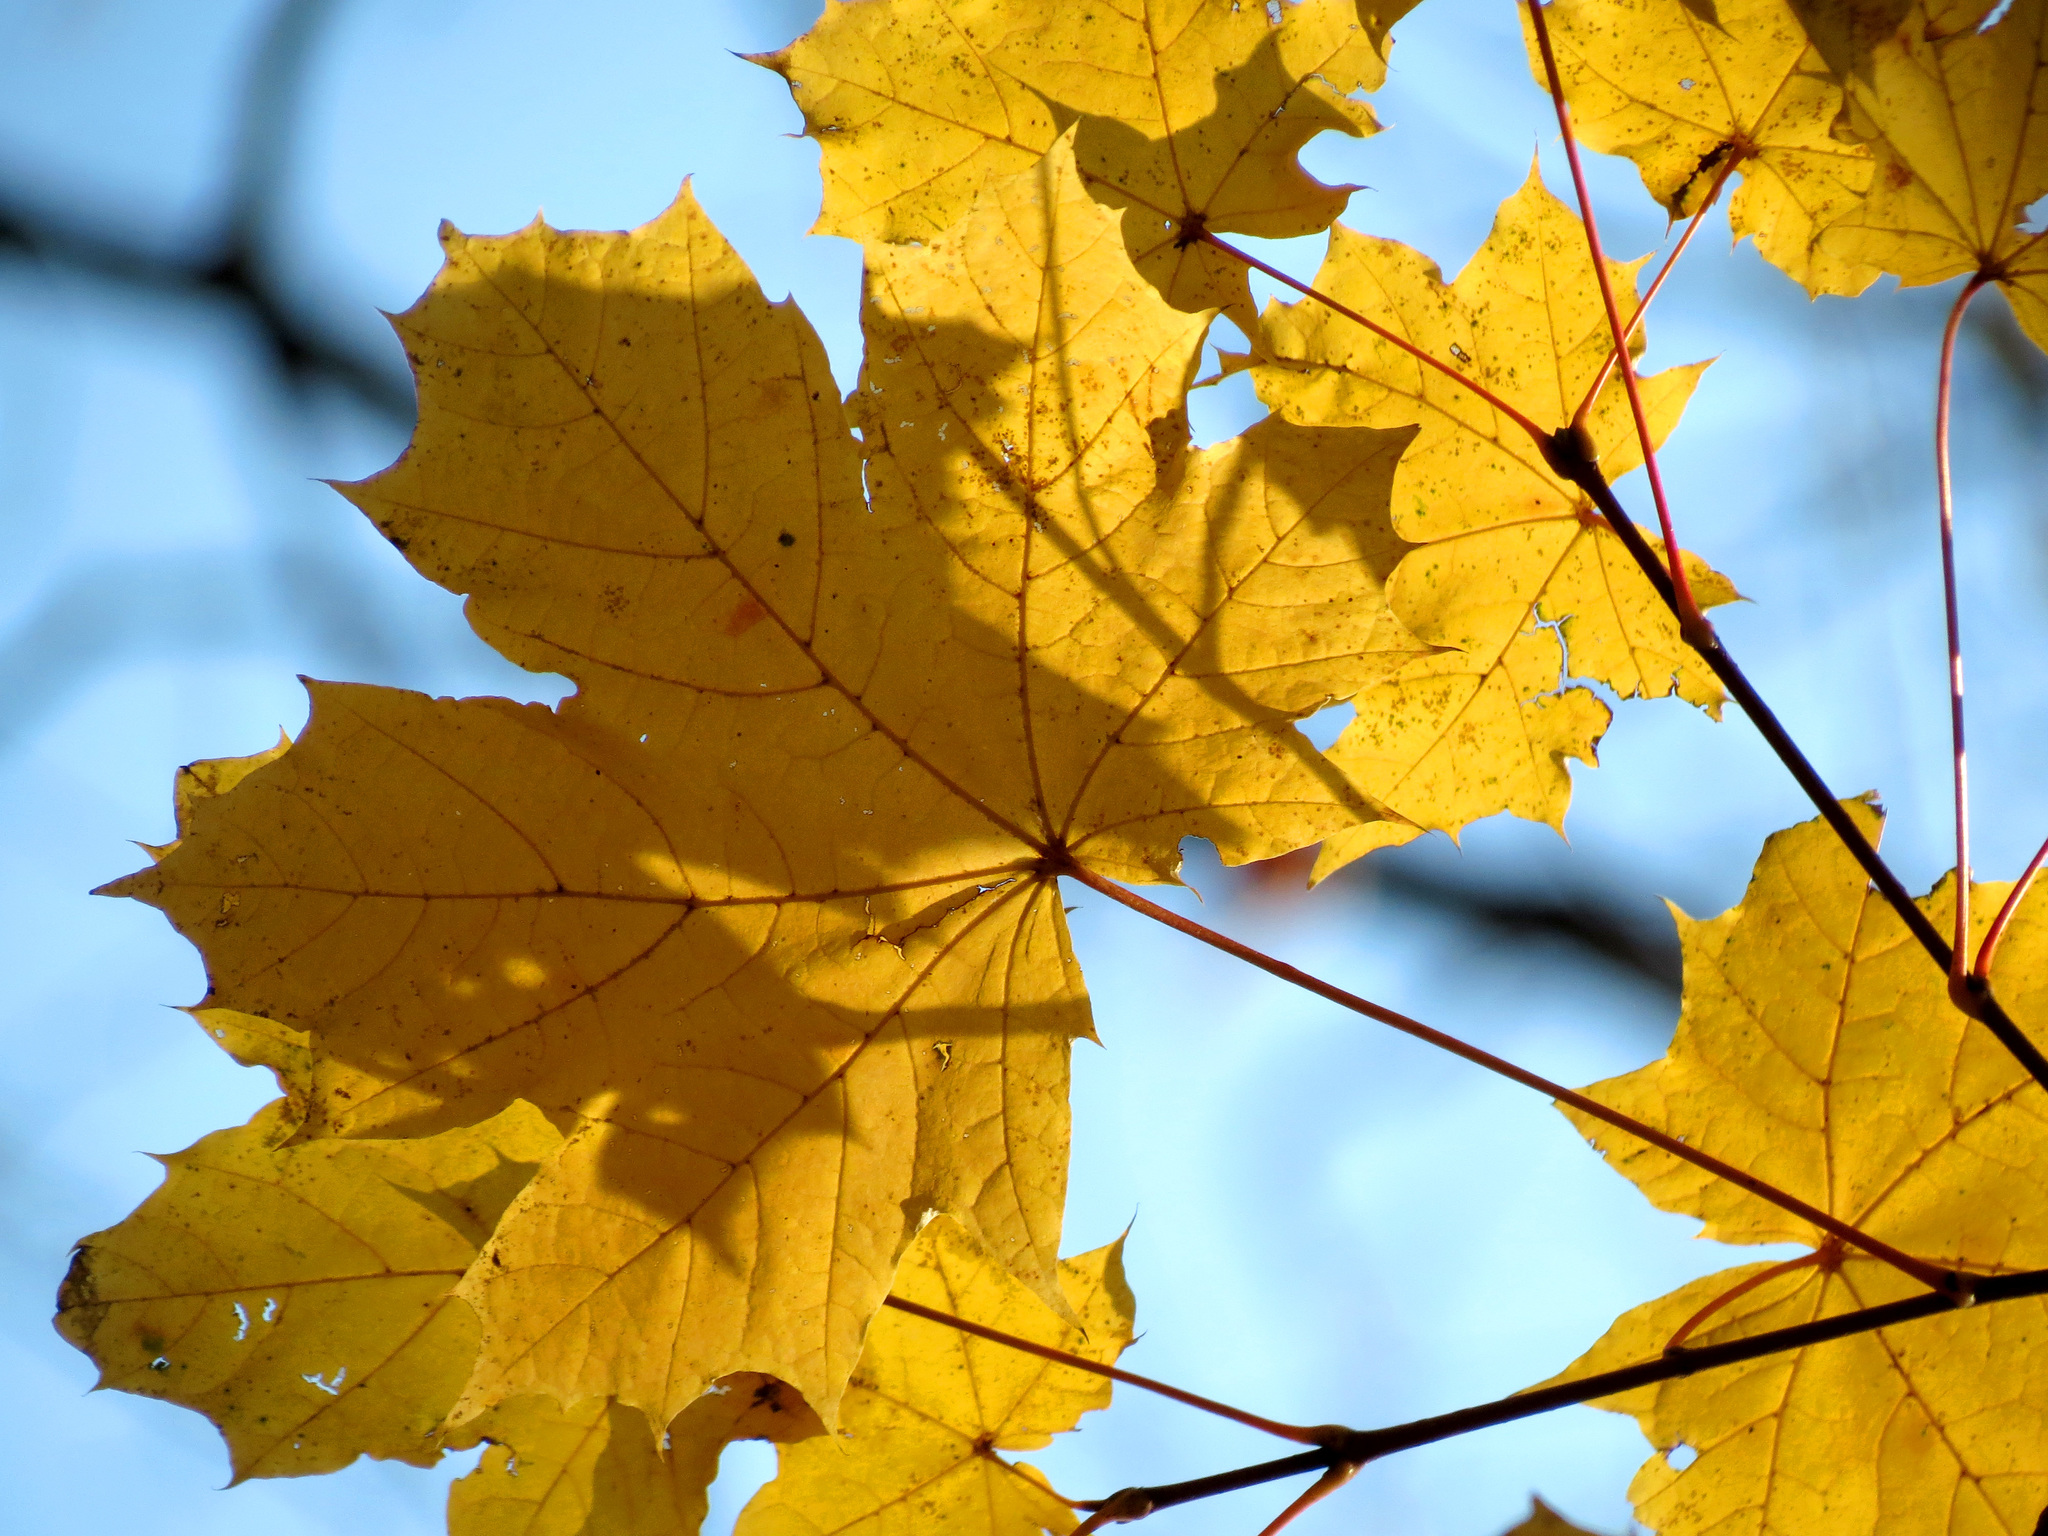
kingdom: Plantae
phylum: Tracheophyta
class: Magnoliopsida
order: Sapindales
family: Sapindaceae
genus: Acer
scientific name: Acer platanoides
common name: Norway maple
